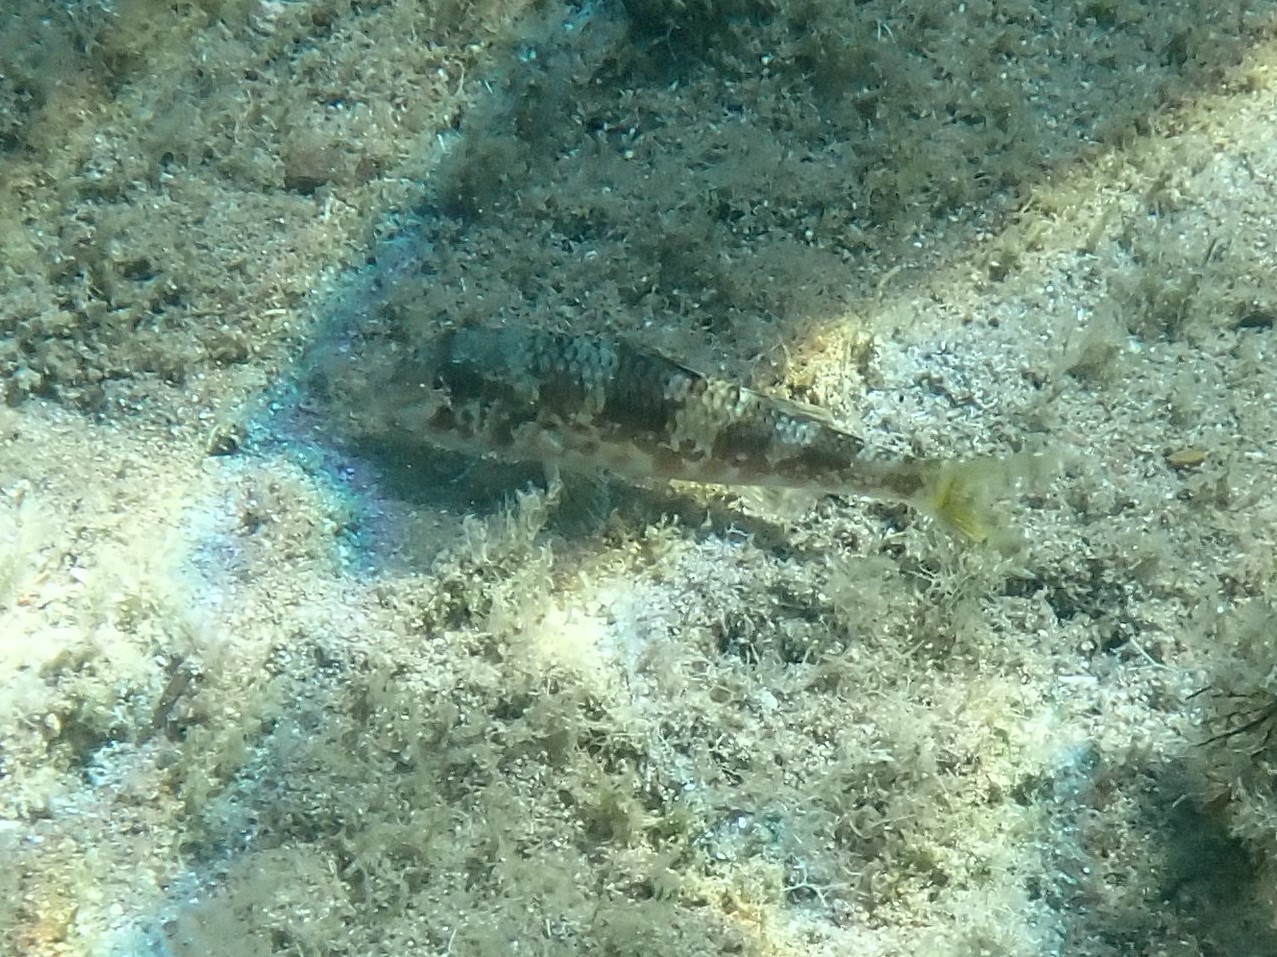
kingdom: Animalia
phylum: Chordata
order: Perciformes
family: Mullidae
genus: Mullus
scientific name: Mullus surmuletus
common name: Red mullet
